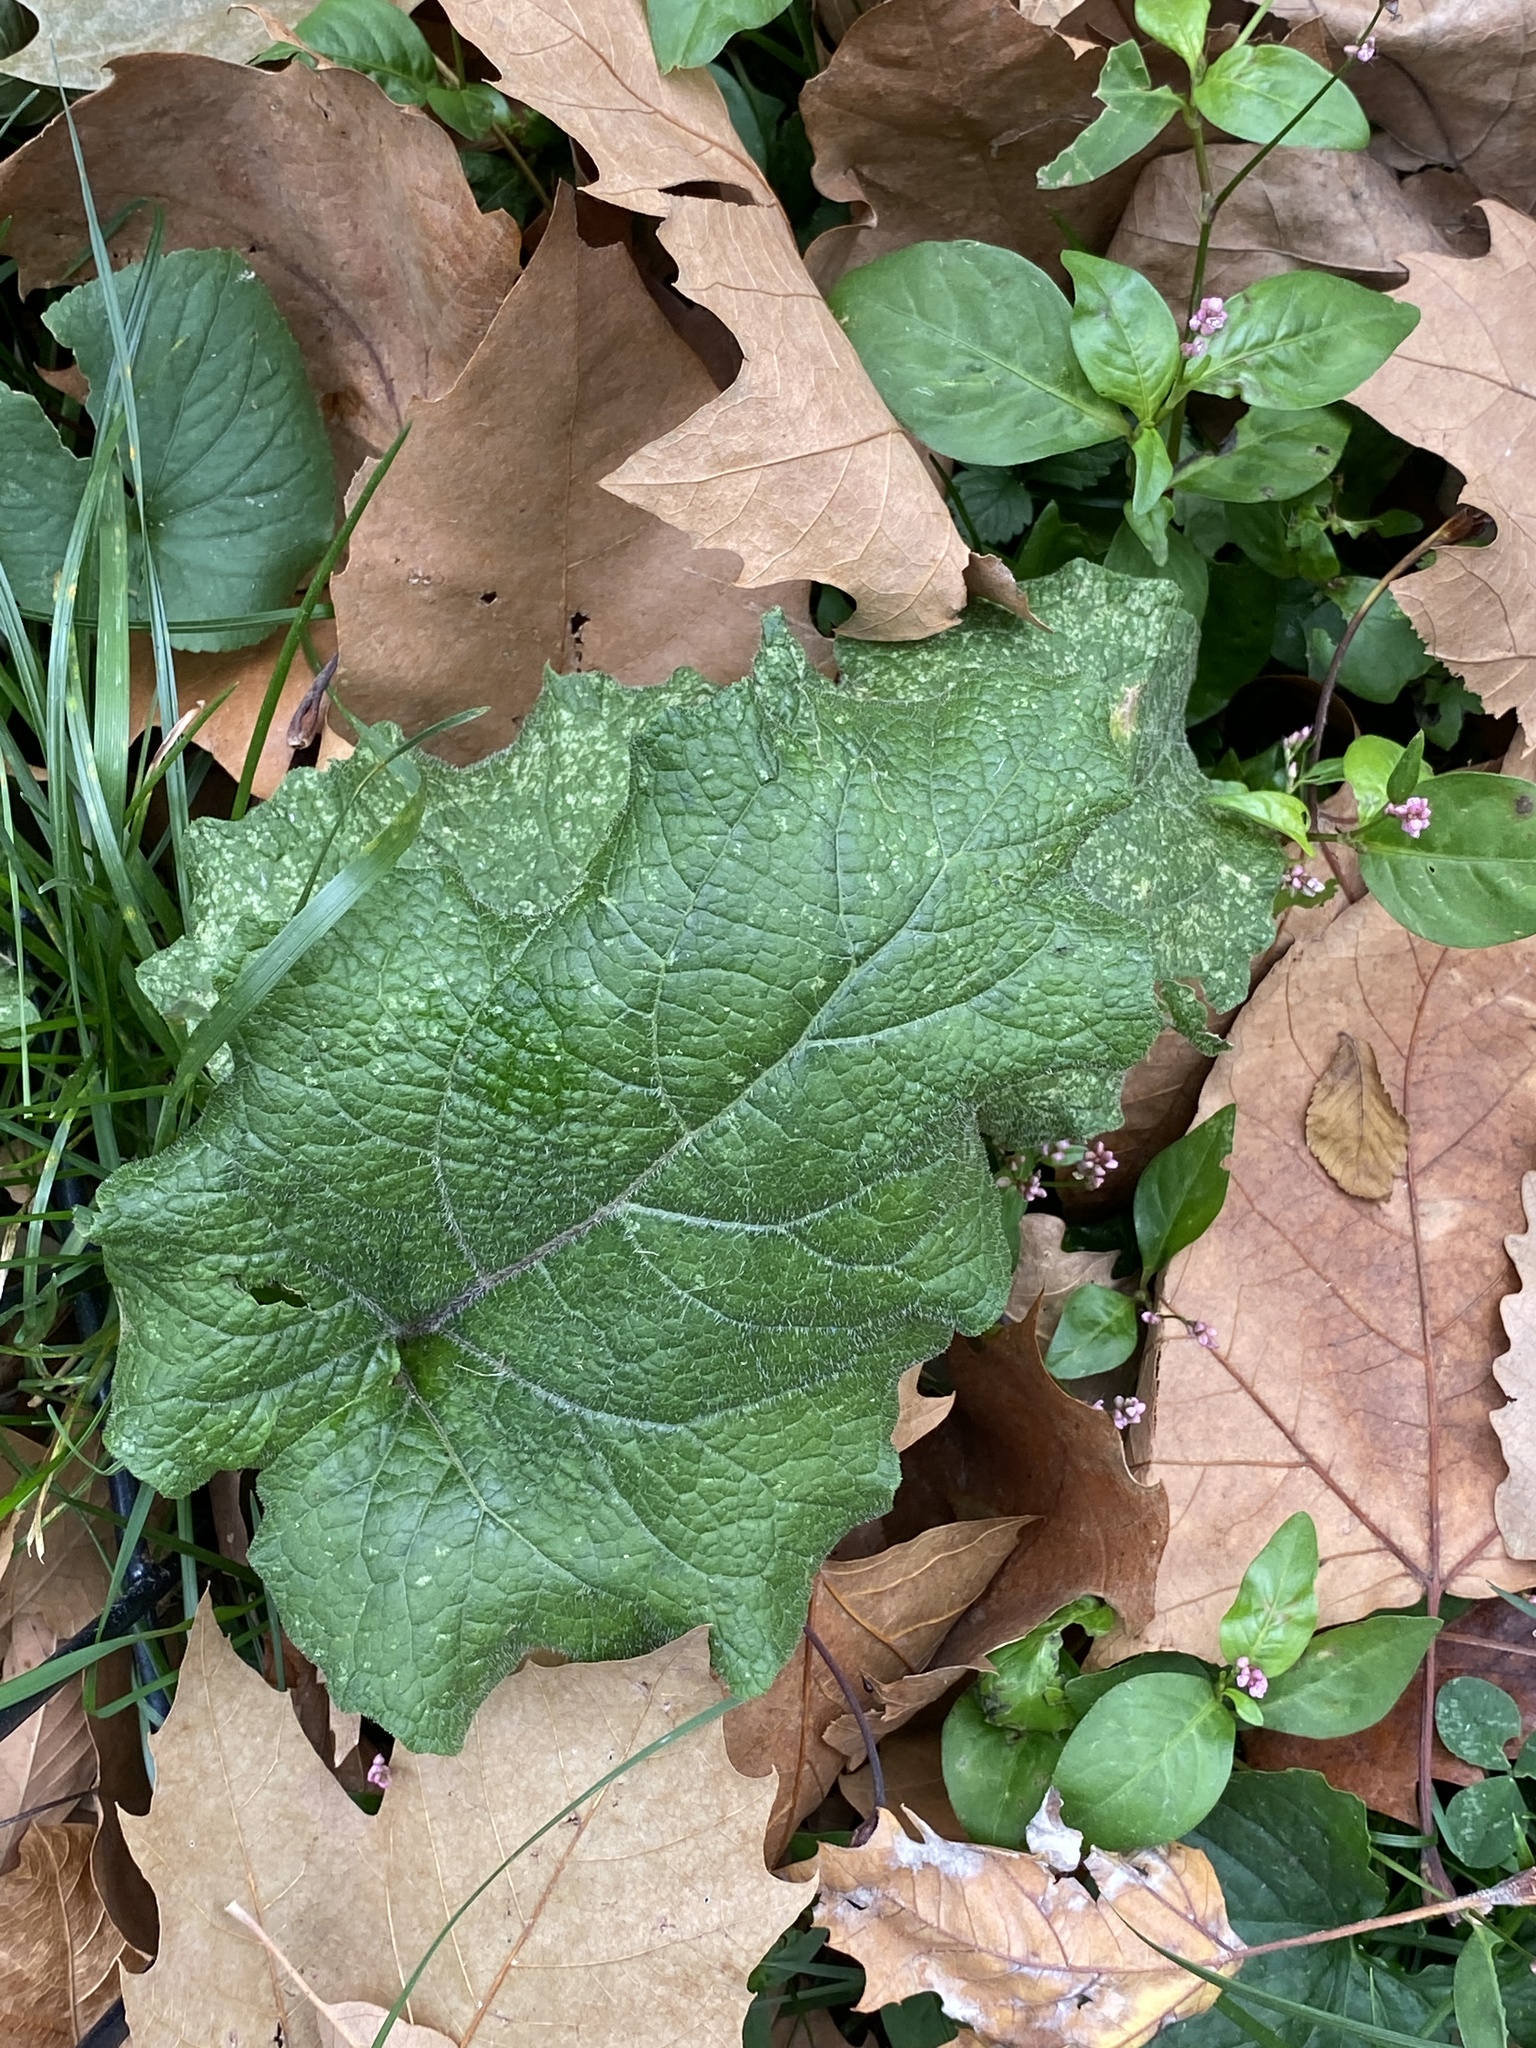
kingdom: Plantae
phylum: Tracheophyta
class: Magnoliopsida
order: Asterales
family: Asteraceae
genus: Arctium
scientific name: Arctium
